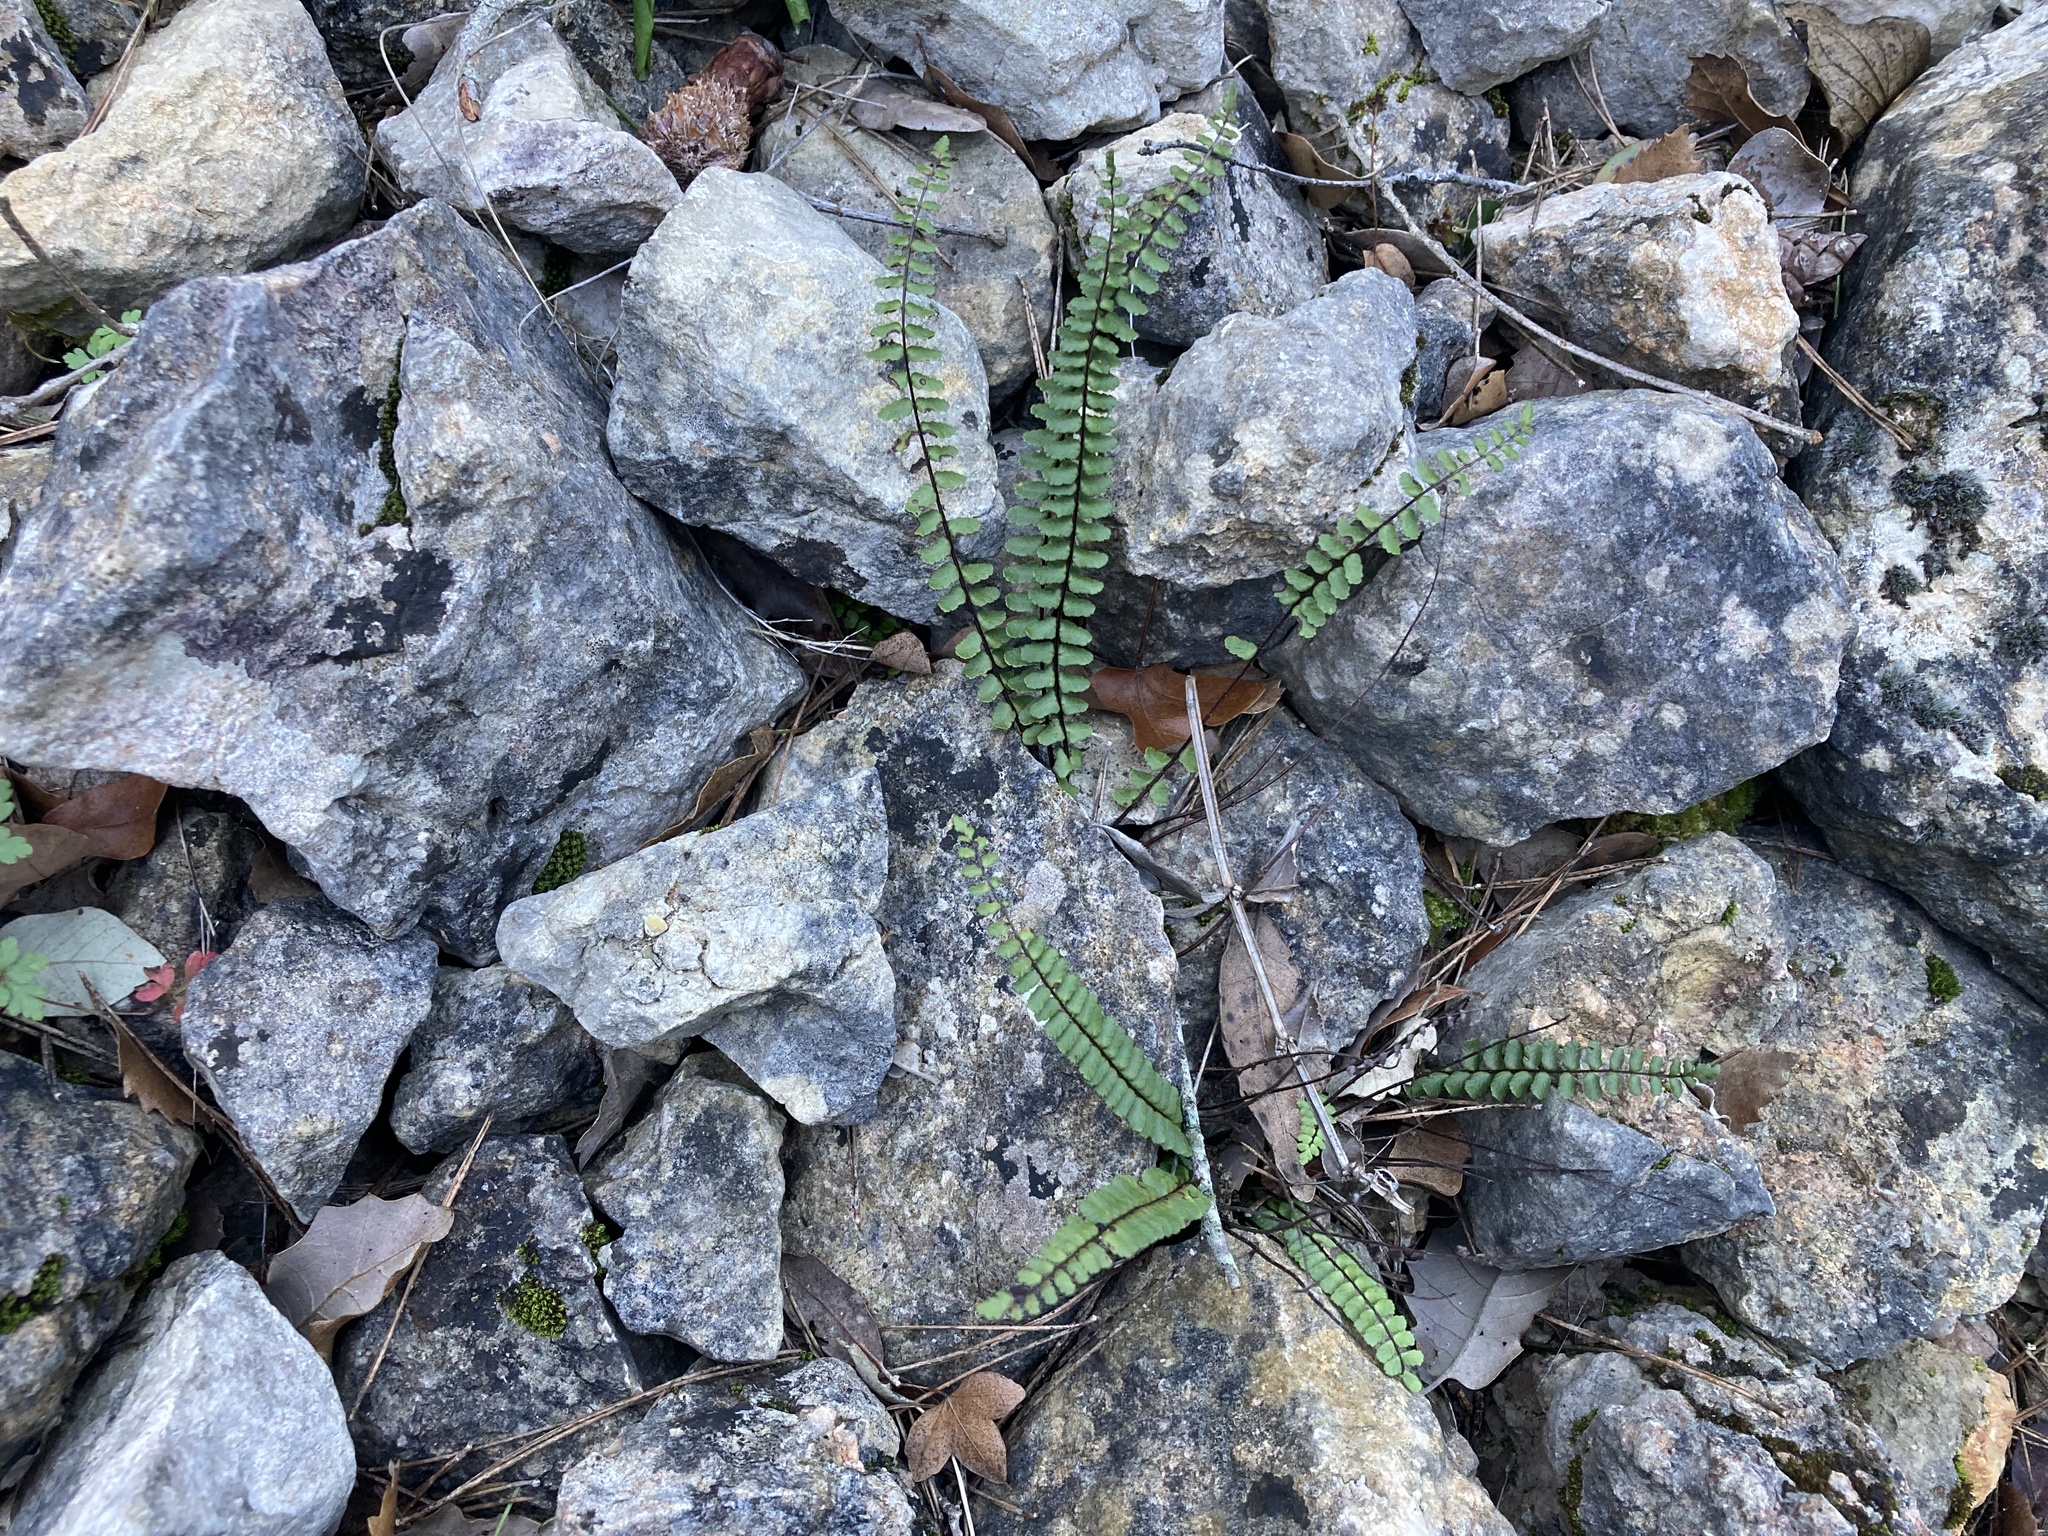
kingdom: Plantae
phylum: Tracheophyta
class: Polypodiopsida
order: Polypodiales
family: Aspleniaceae
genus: Asplenium
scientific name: Asplenium trichomanes
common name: Maidenhair spleenwort
